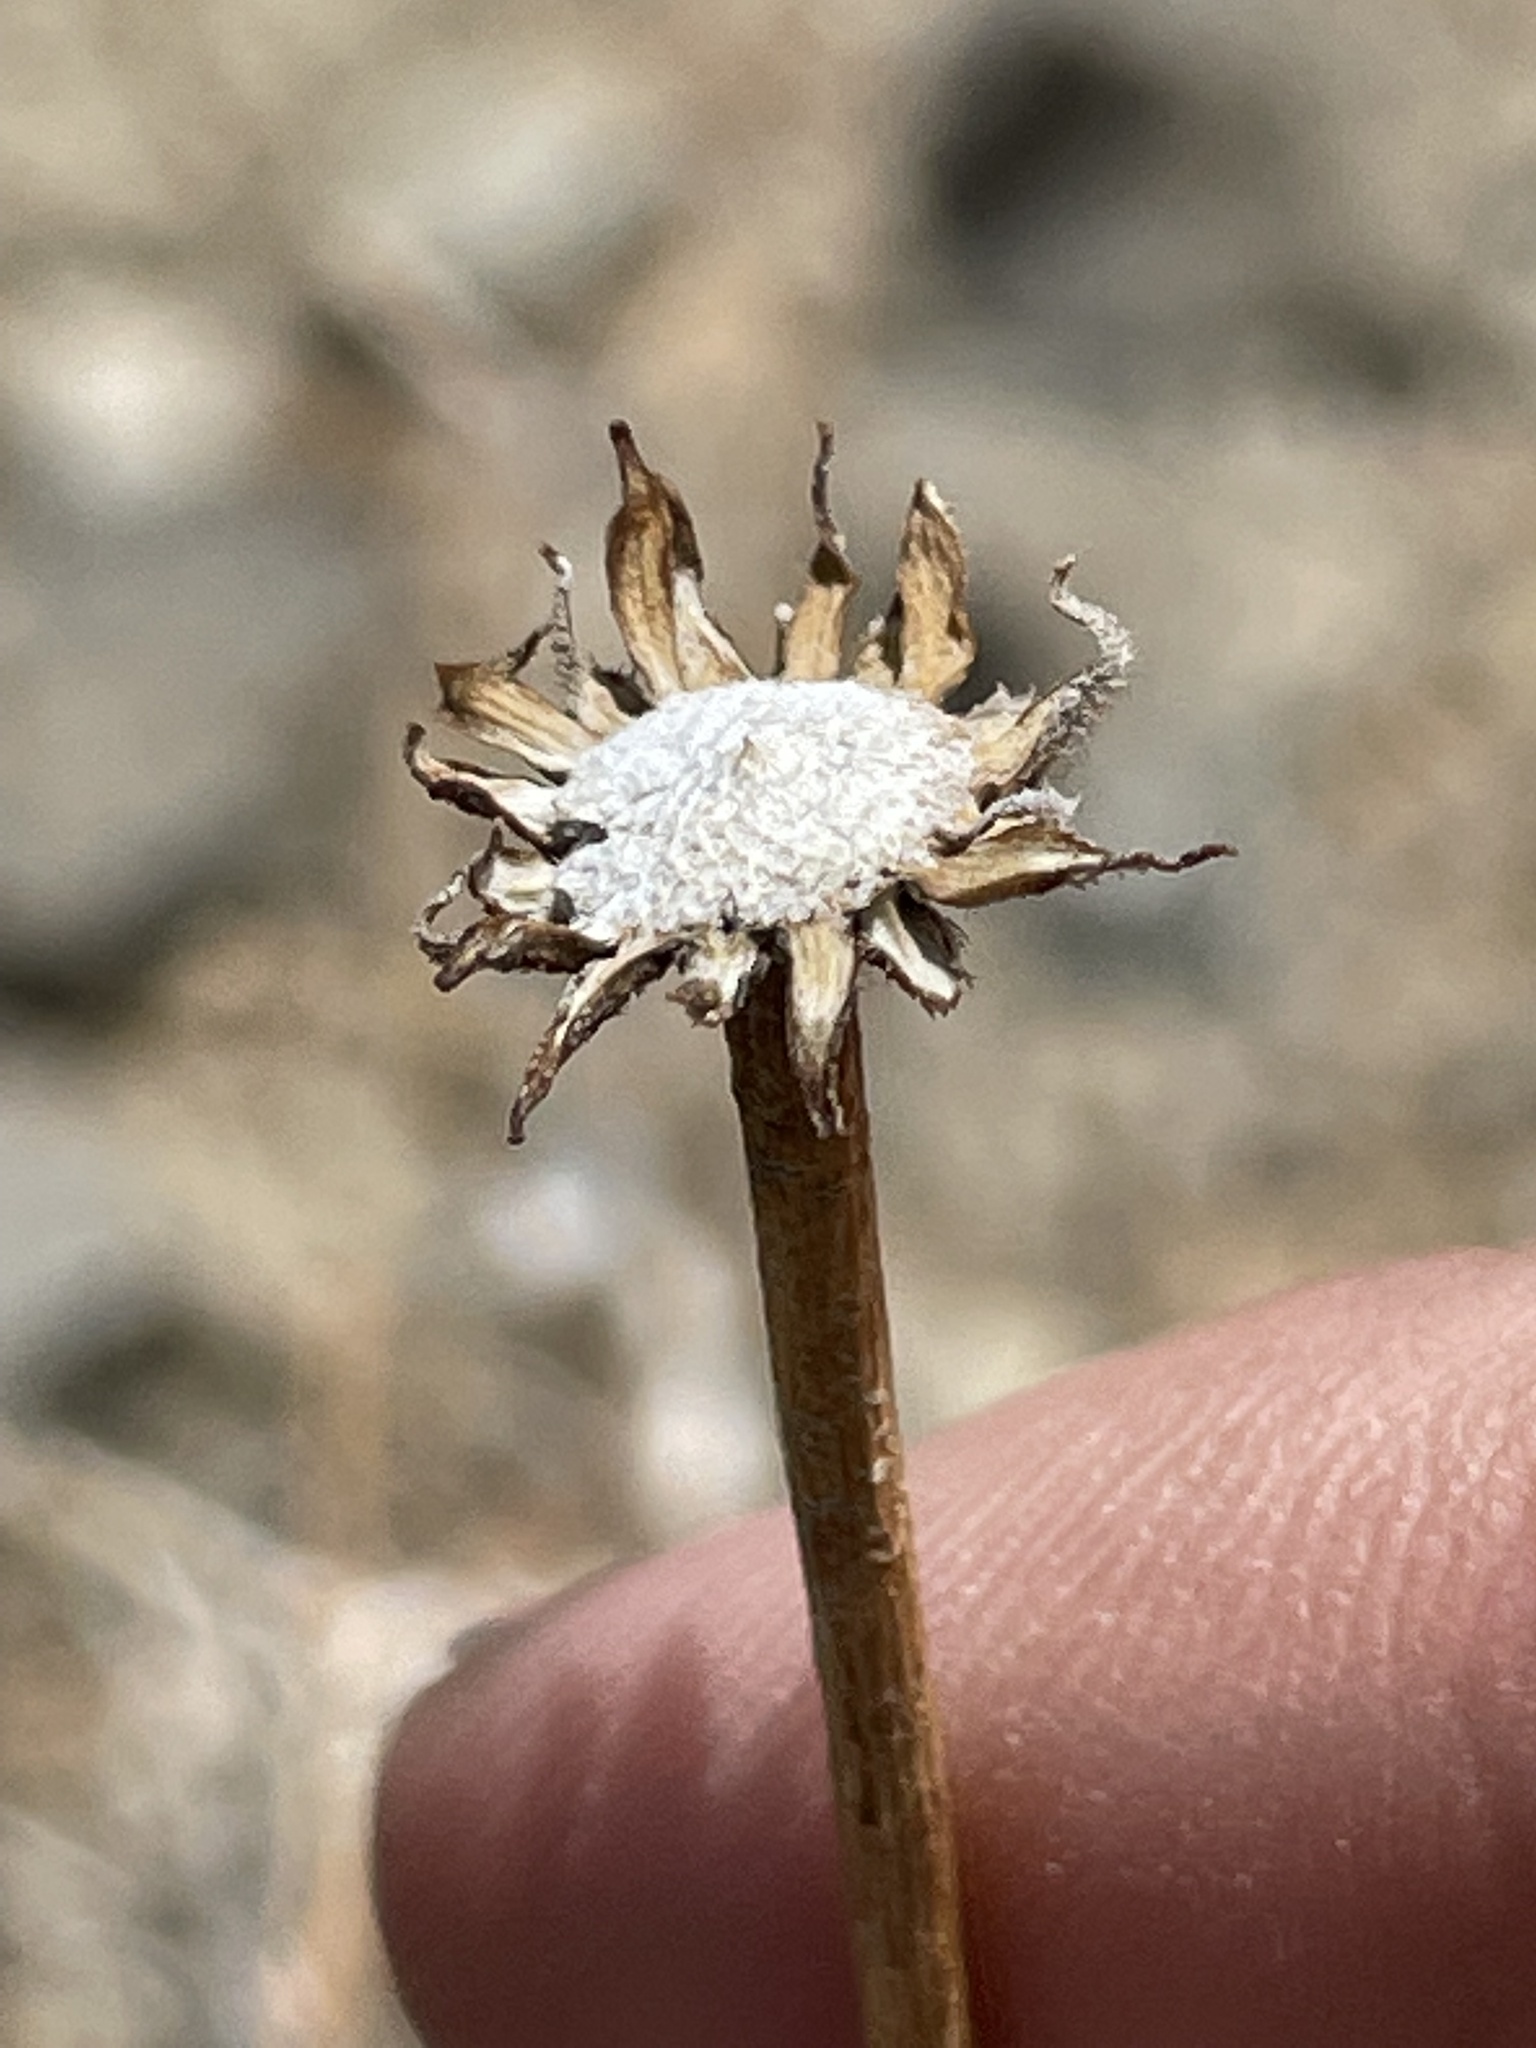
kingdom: Plantae
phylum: Tracheophyta
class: Magnoliopsida
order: Asterales
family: Asteraceae
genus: Encelia
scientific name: Encelia actoni
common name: Acton encelia
